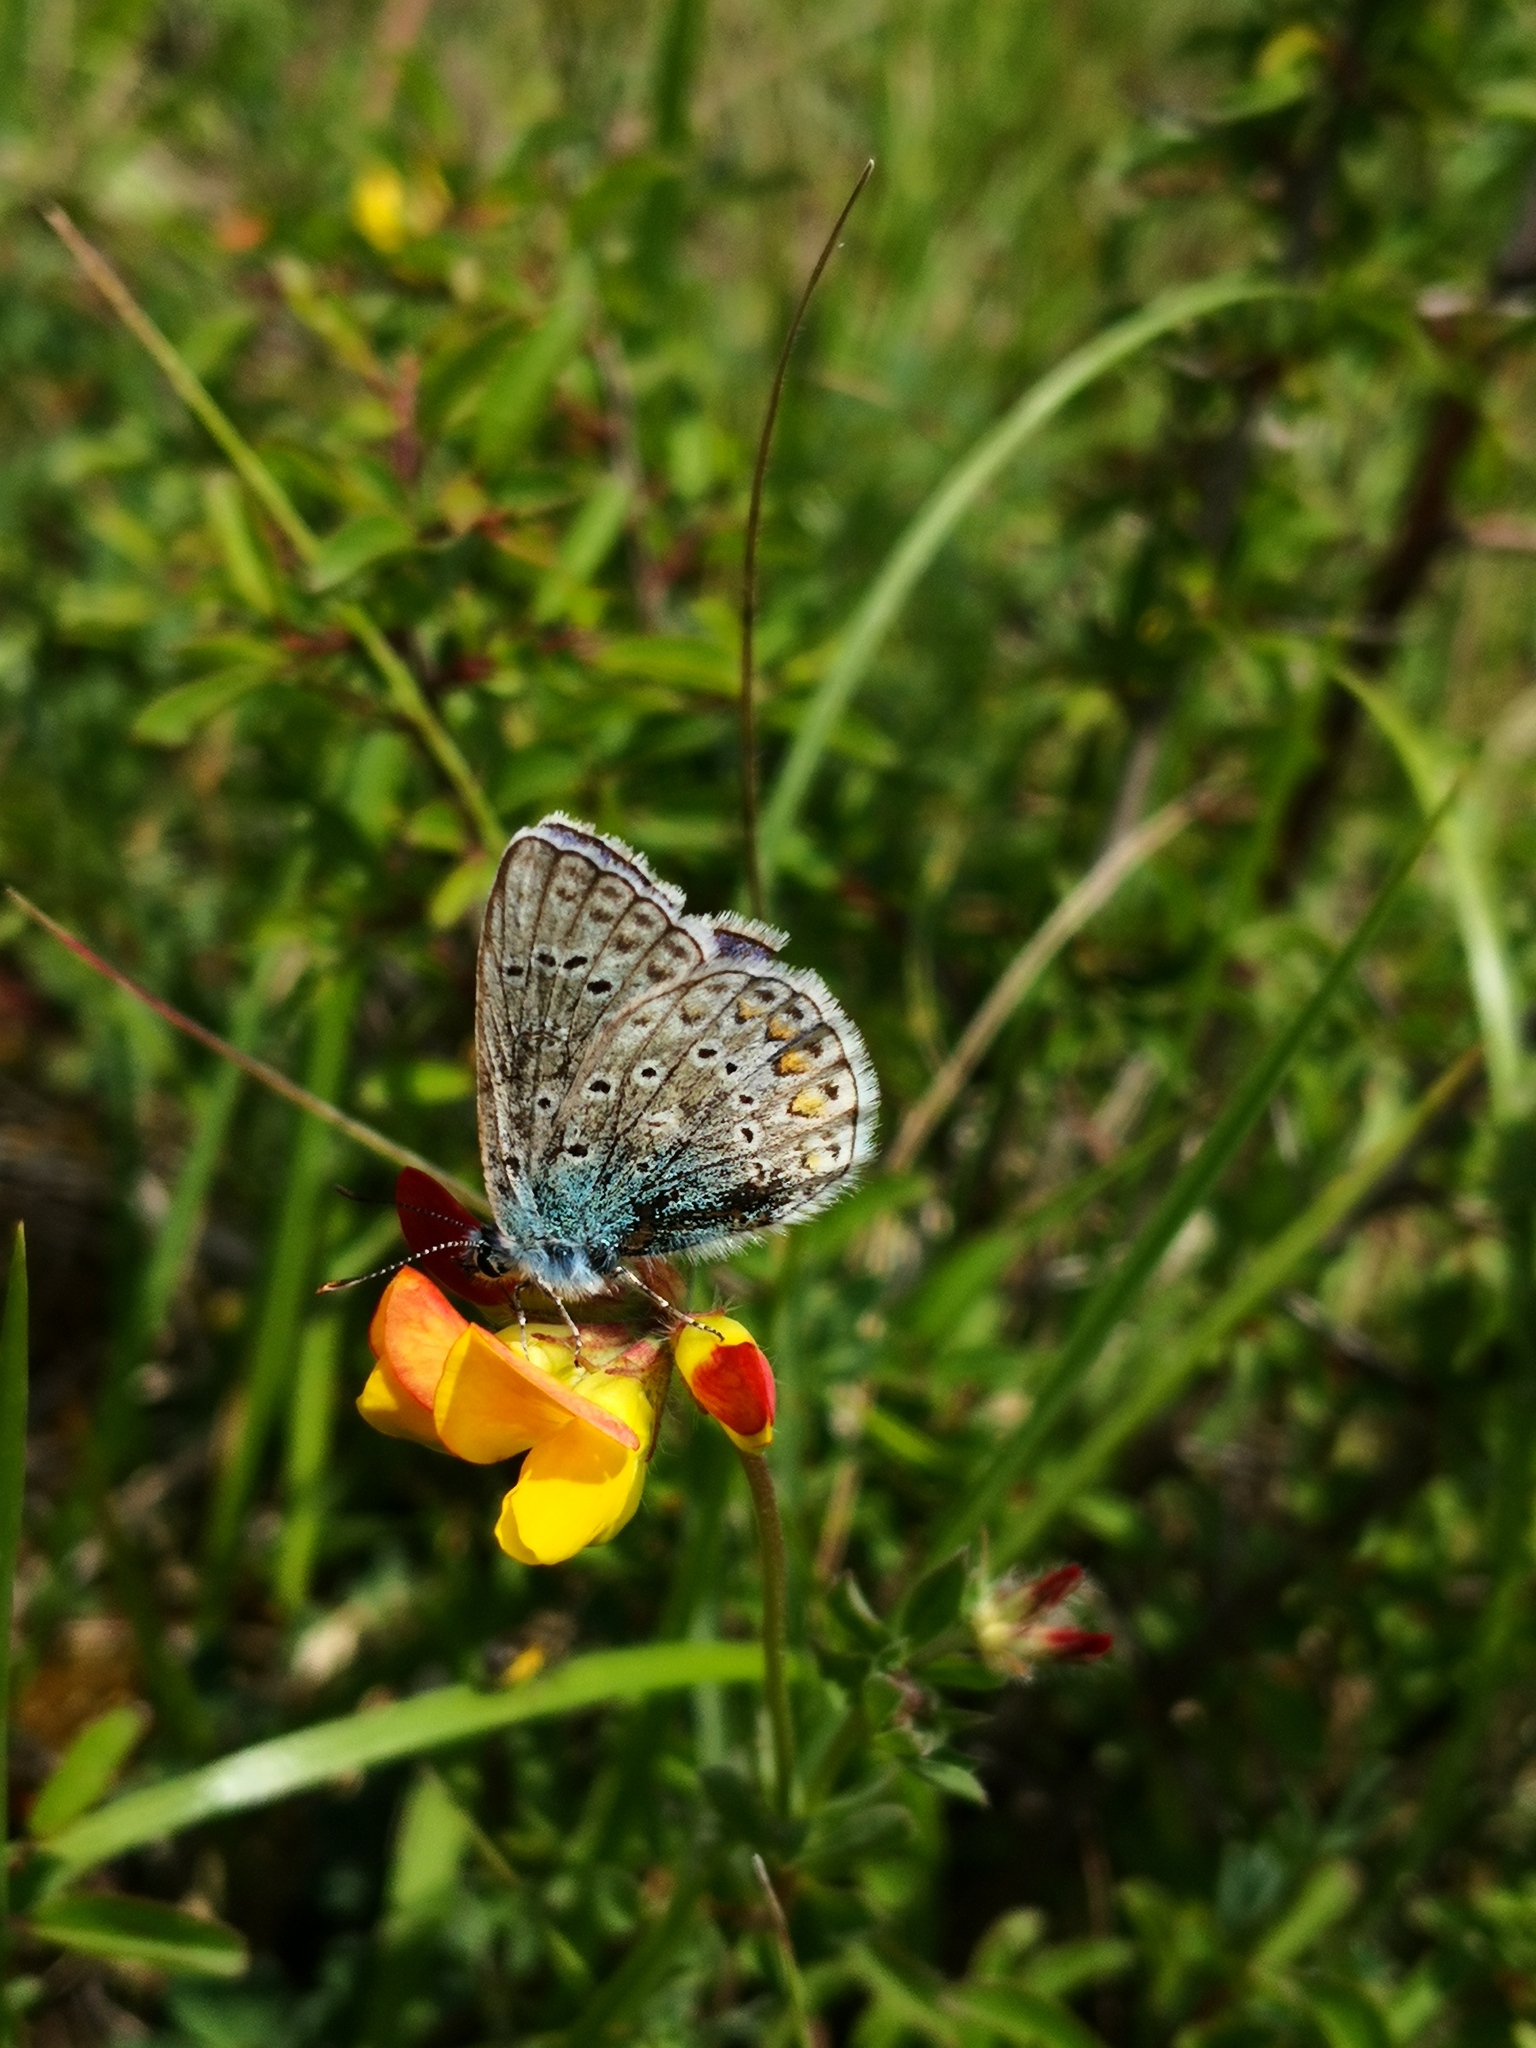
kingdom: Animalia
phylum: Arthropoda
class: Insecta
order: Lepidoptera
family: Lycaenidae
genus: Polyommatus
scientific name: Polyommatus icarus
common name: Common blue
